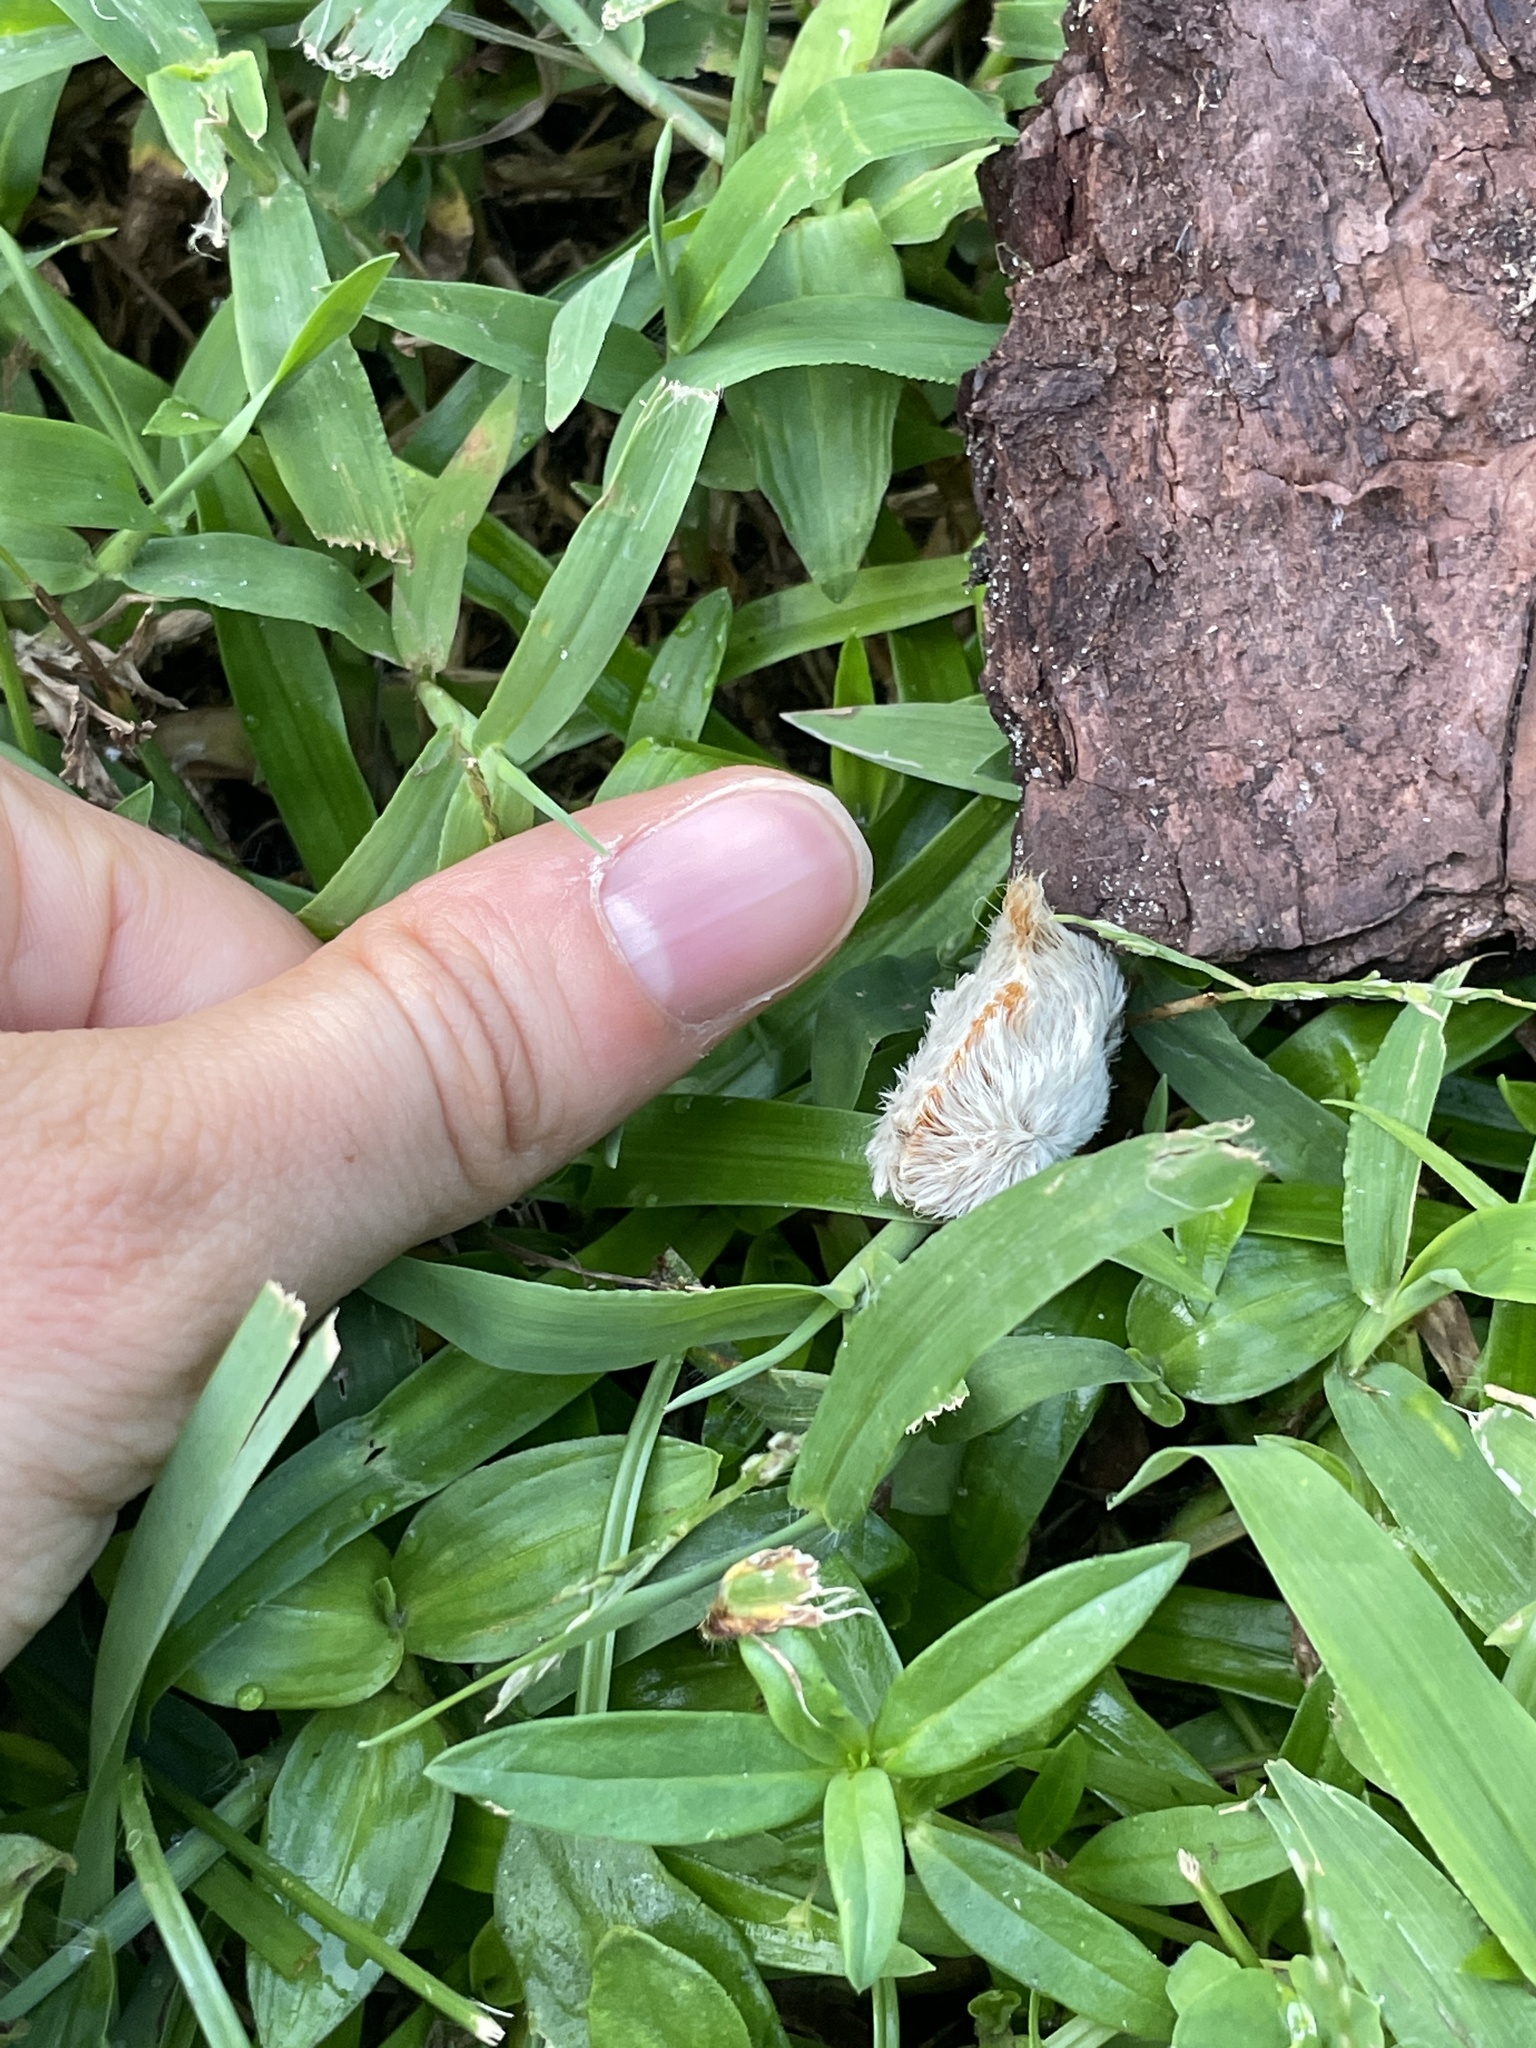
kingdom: Animalia
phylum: Arthropoda
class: Insecta
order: Lepidoptera
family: Megalopygidae
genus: Megalopyge
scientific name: Megalopyge opercularis
